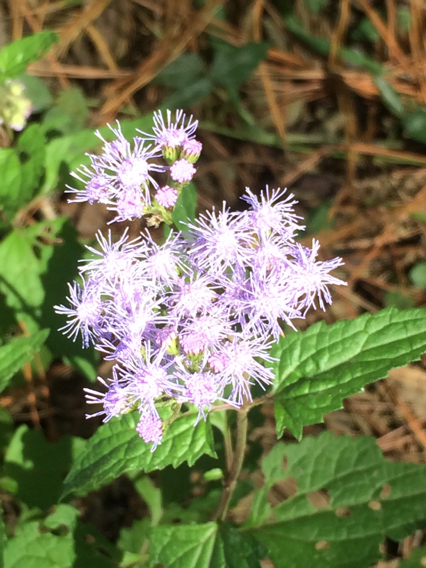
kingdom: Plantae
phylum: Tracheophyta
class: Magnoliopsida
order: Asterales
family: Asteraceae
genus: Conoclinium
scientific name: Conoclinium coelestinum
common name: Blue mistflower
